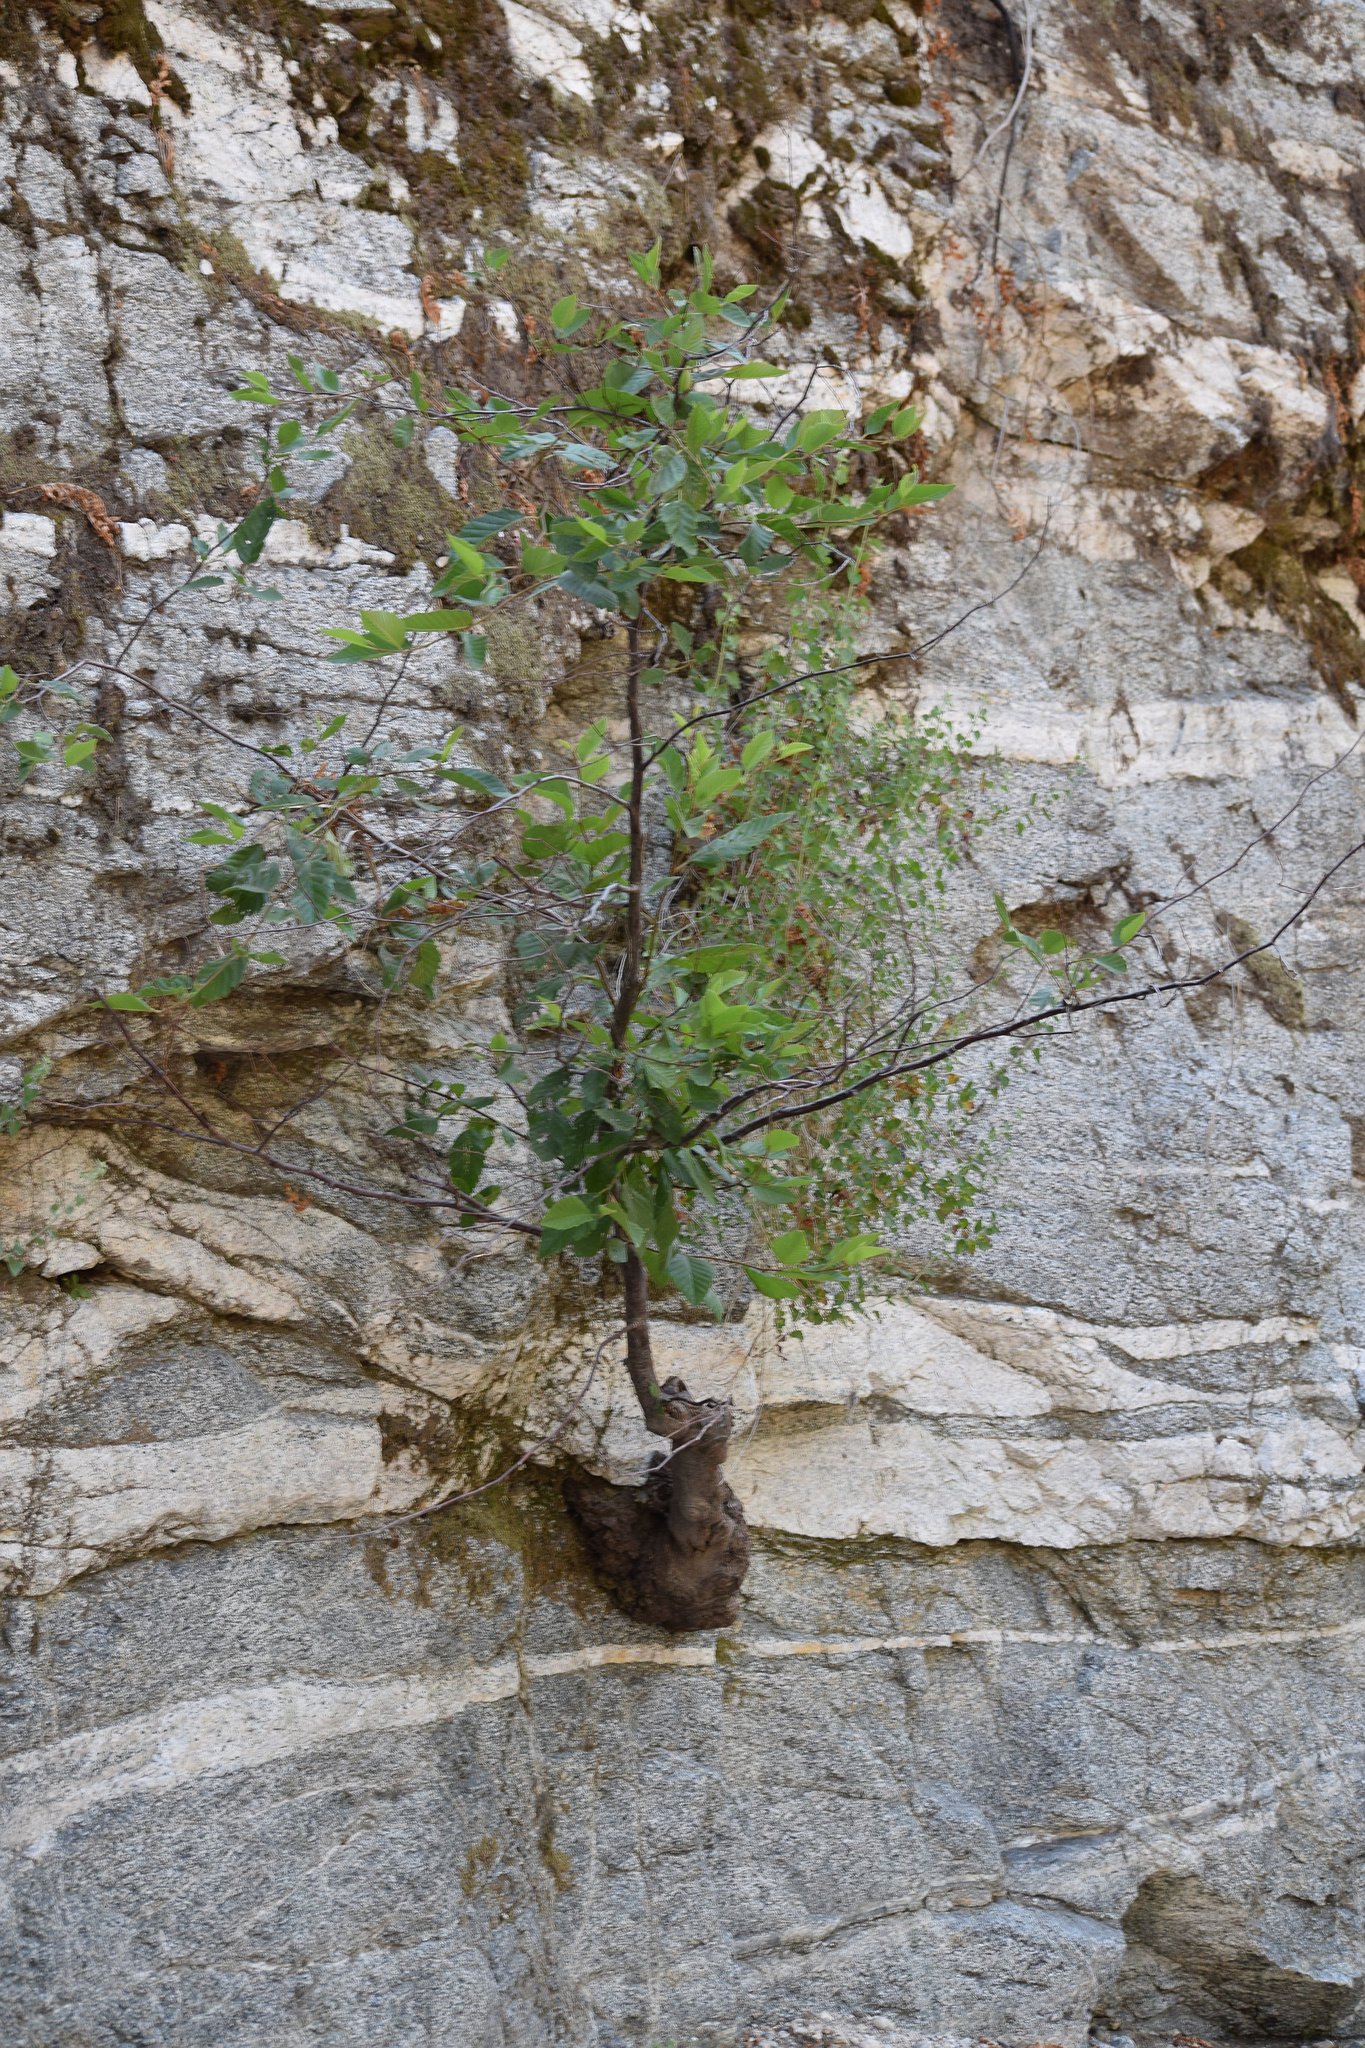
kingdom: Plantae
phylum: Tracheophyta
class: Magnoliopsida
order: Fagales
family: Betulaceae
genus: Alnus
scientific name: Alnus rhombifolia
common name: California alder
